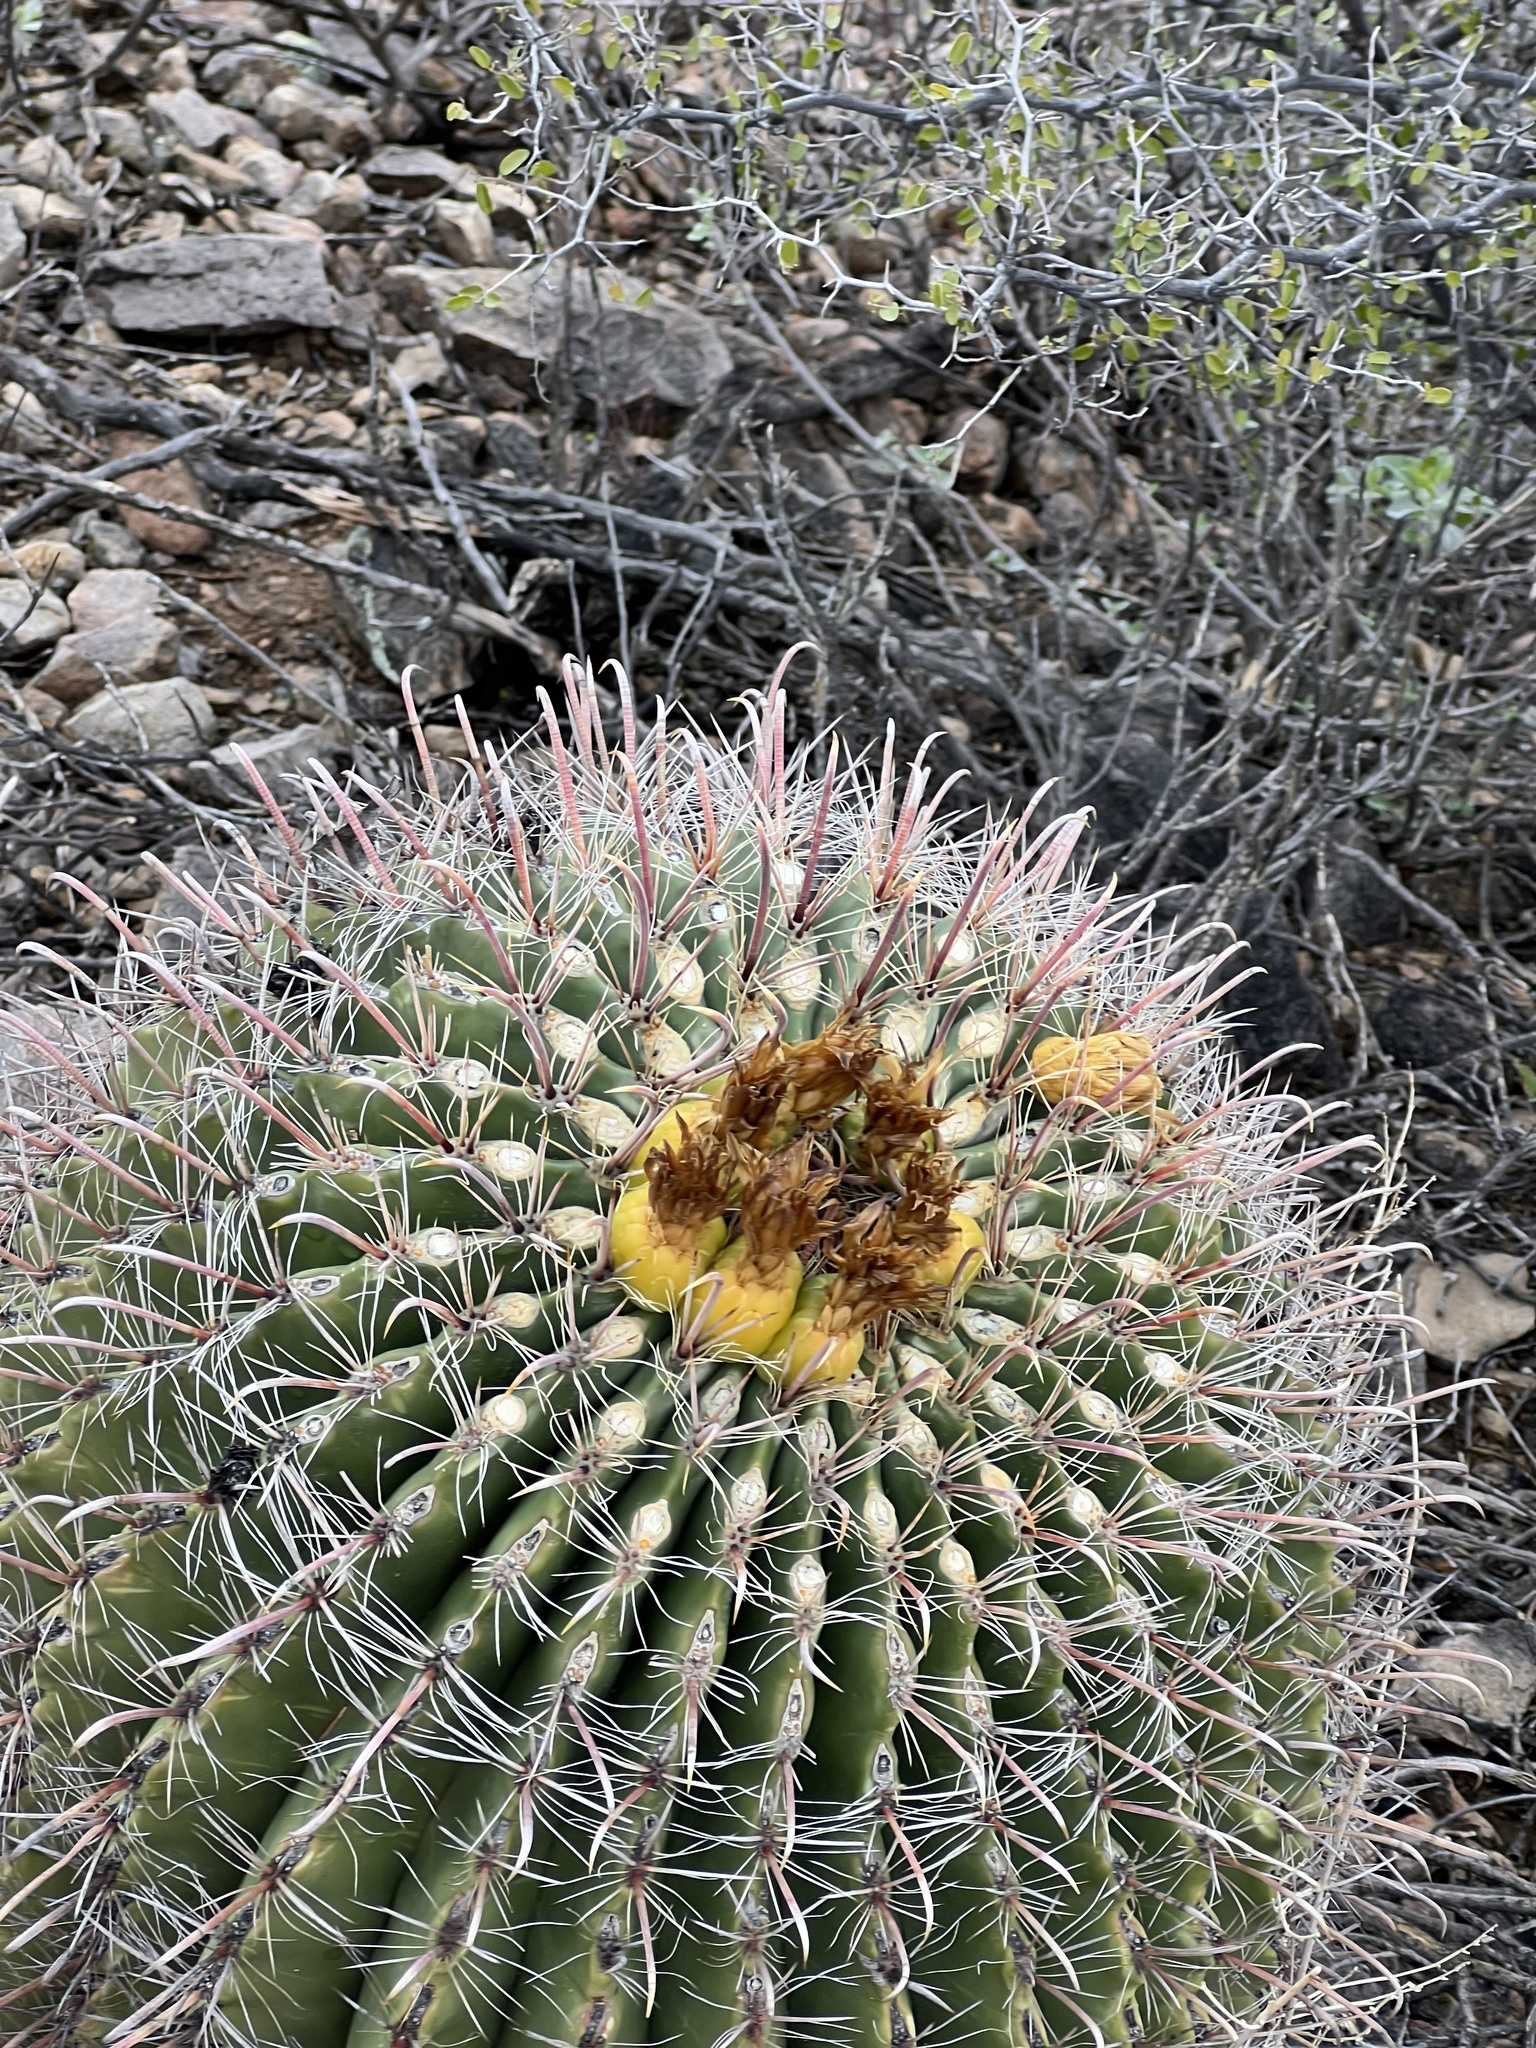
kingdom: Plantae
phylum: Tracheophyta
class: Magnoliopsida
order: Caryophyllales
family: Cactaceae
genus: Ferocactus
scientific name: Ferocactus wislizeni
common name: Candy barrel cactus
